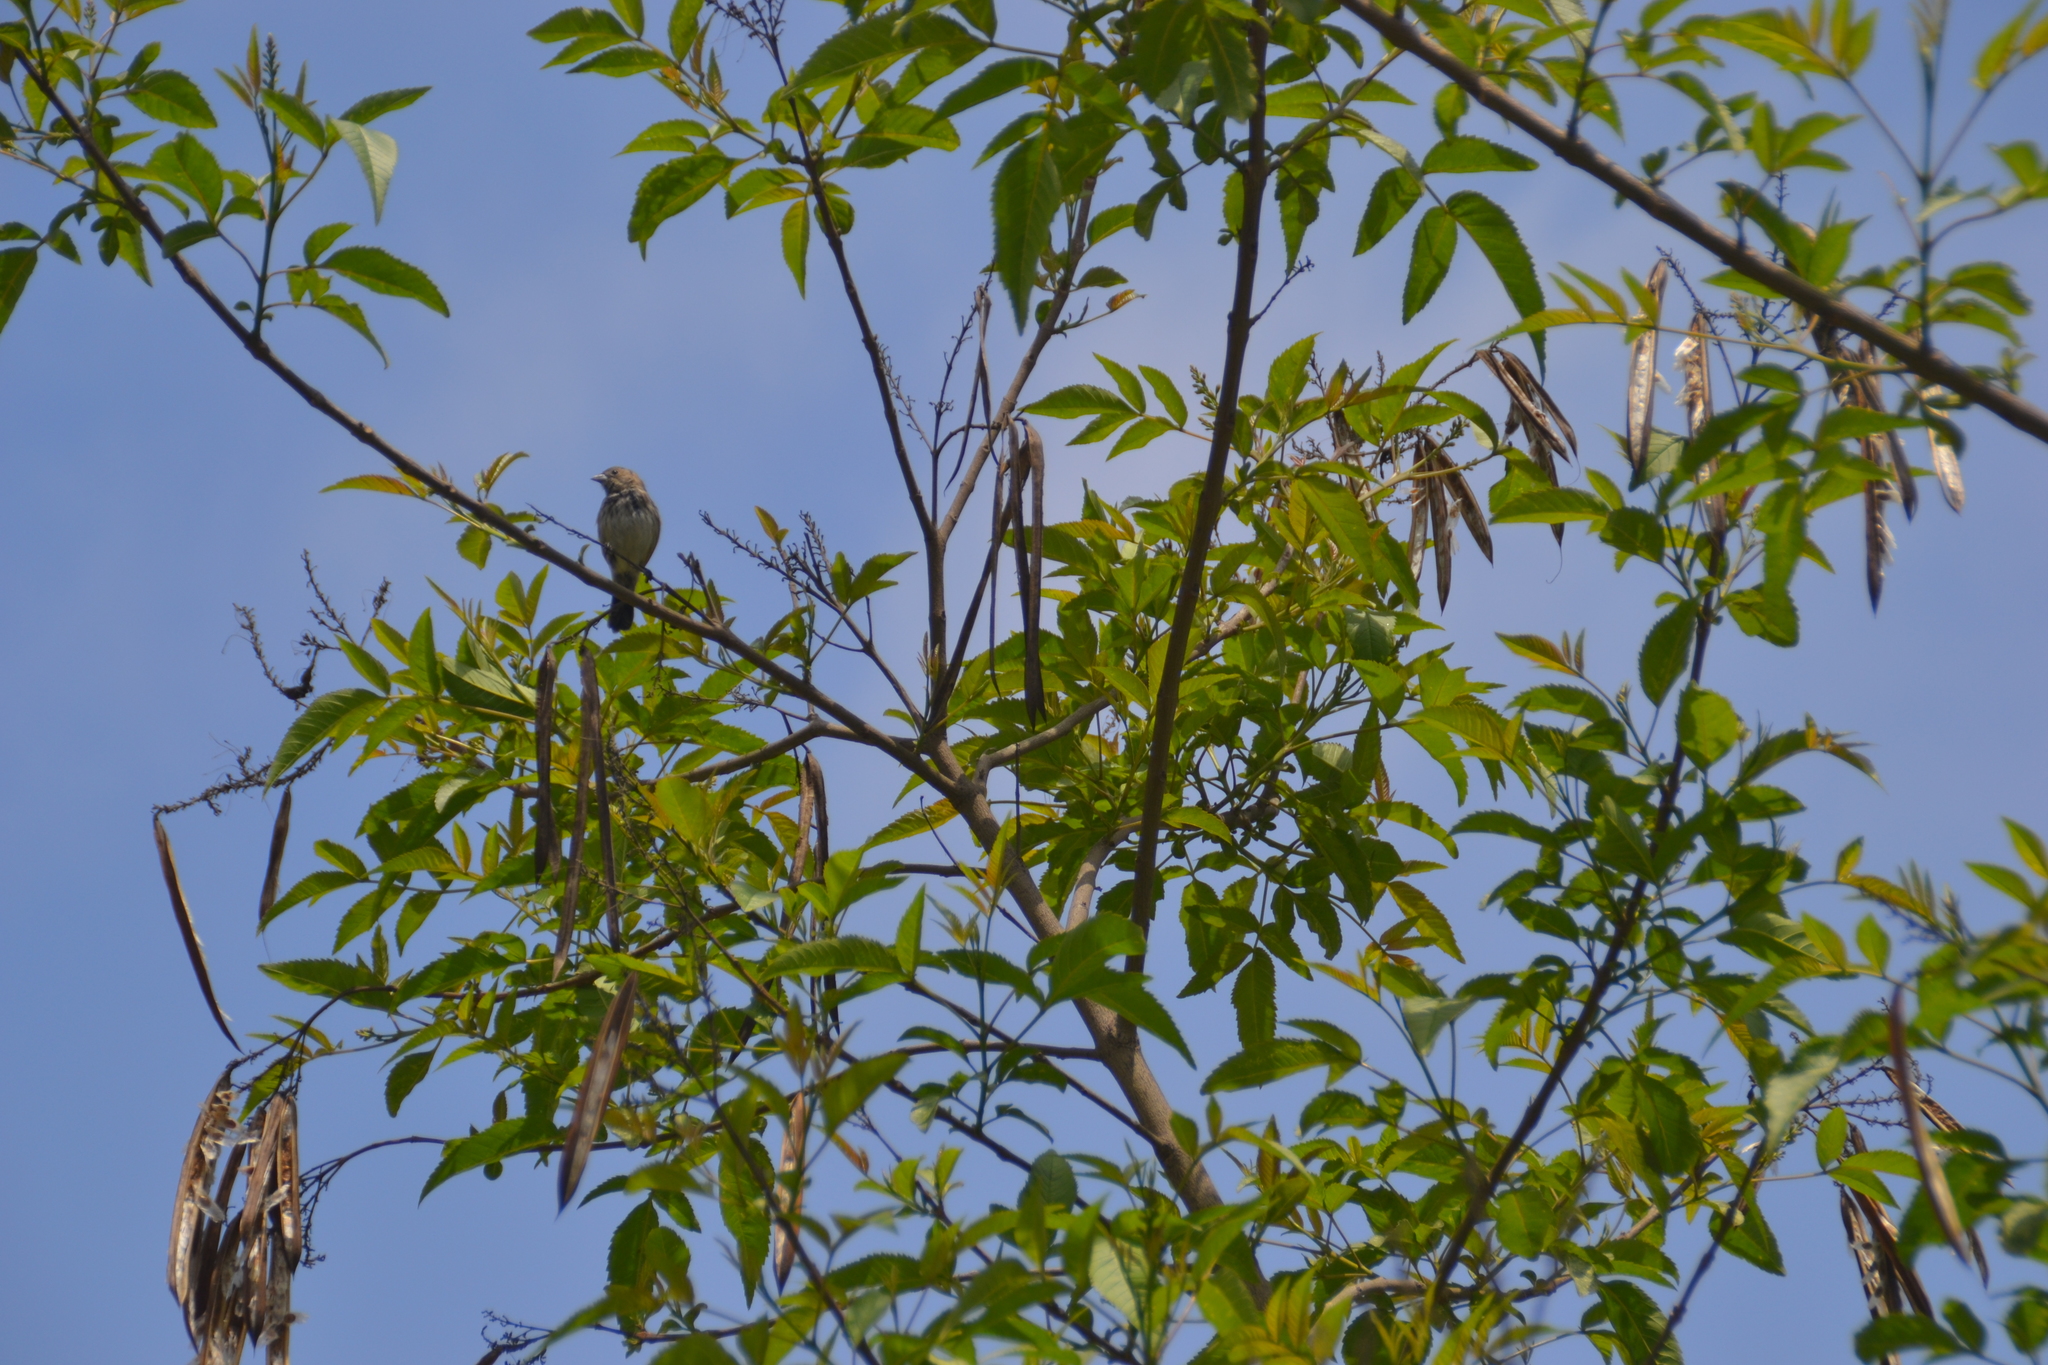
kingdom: Animalia
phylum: Chordata
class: Aves
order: Passeriformes
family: Thraupidae
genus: Volatinia
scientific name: Volatinia jacarina
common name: Blue-black grassquit
